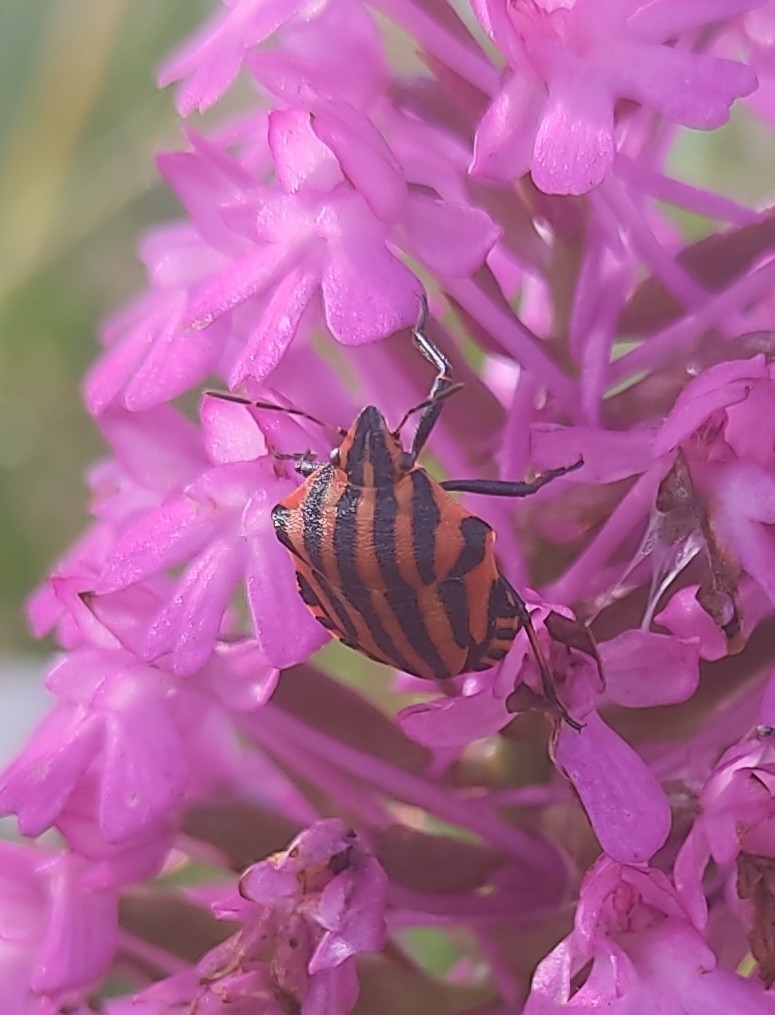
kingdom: Animalia
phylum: Arthropoda
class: Insecta
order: Hemiptera
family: Pentatomidae
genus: Graphosoma
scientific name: Graphosoma italicum
